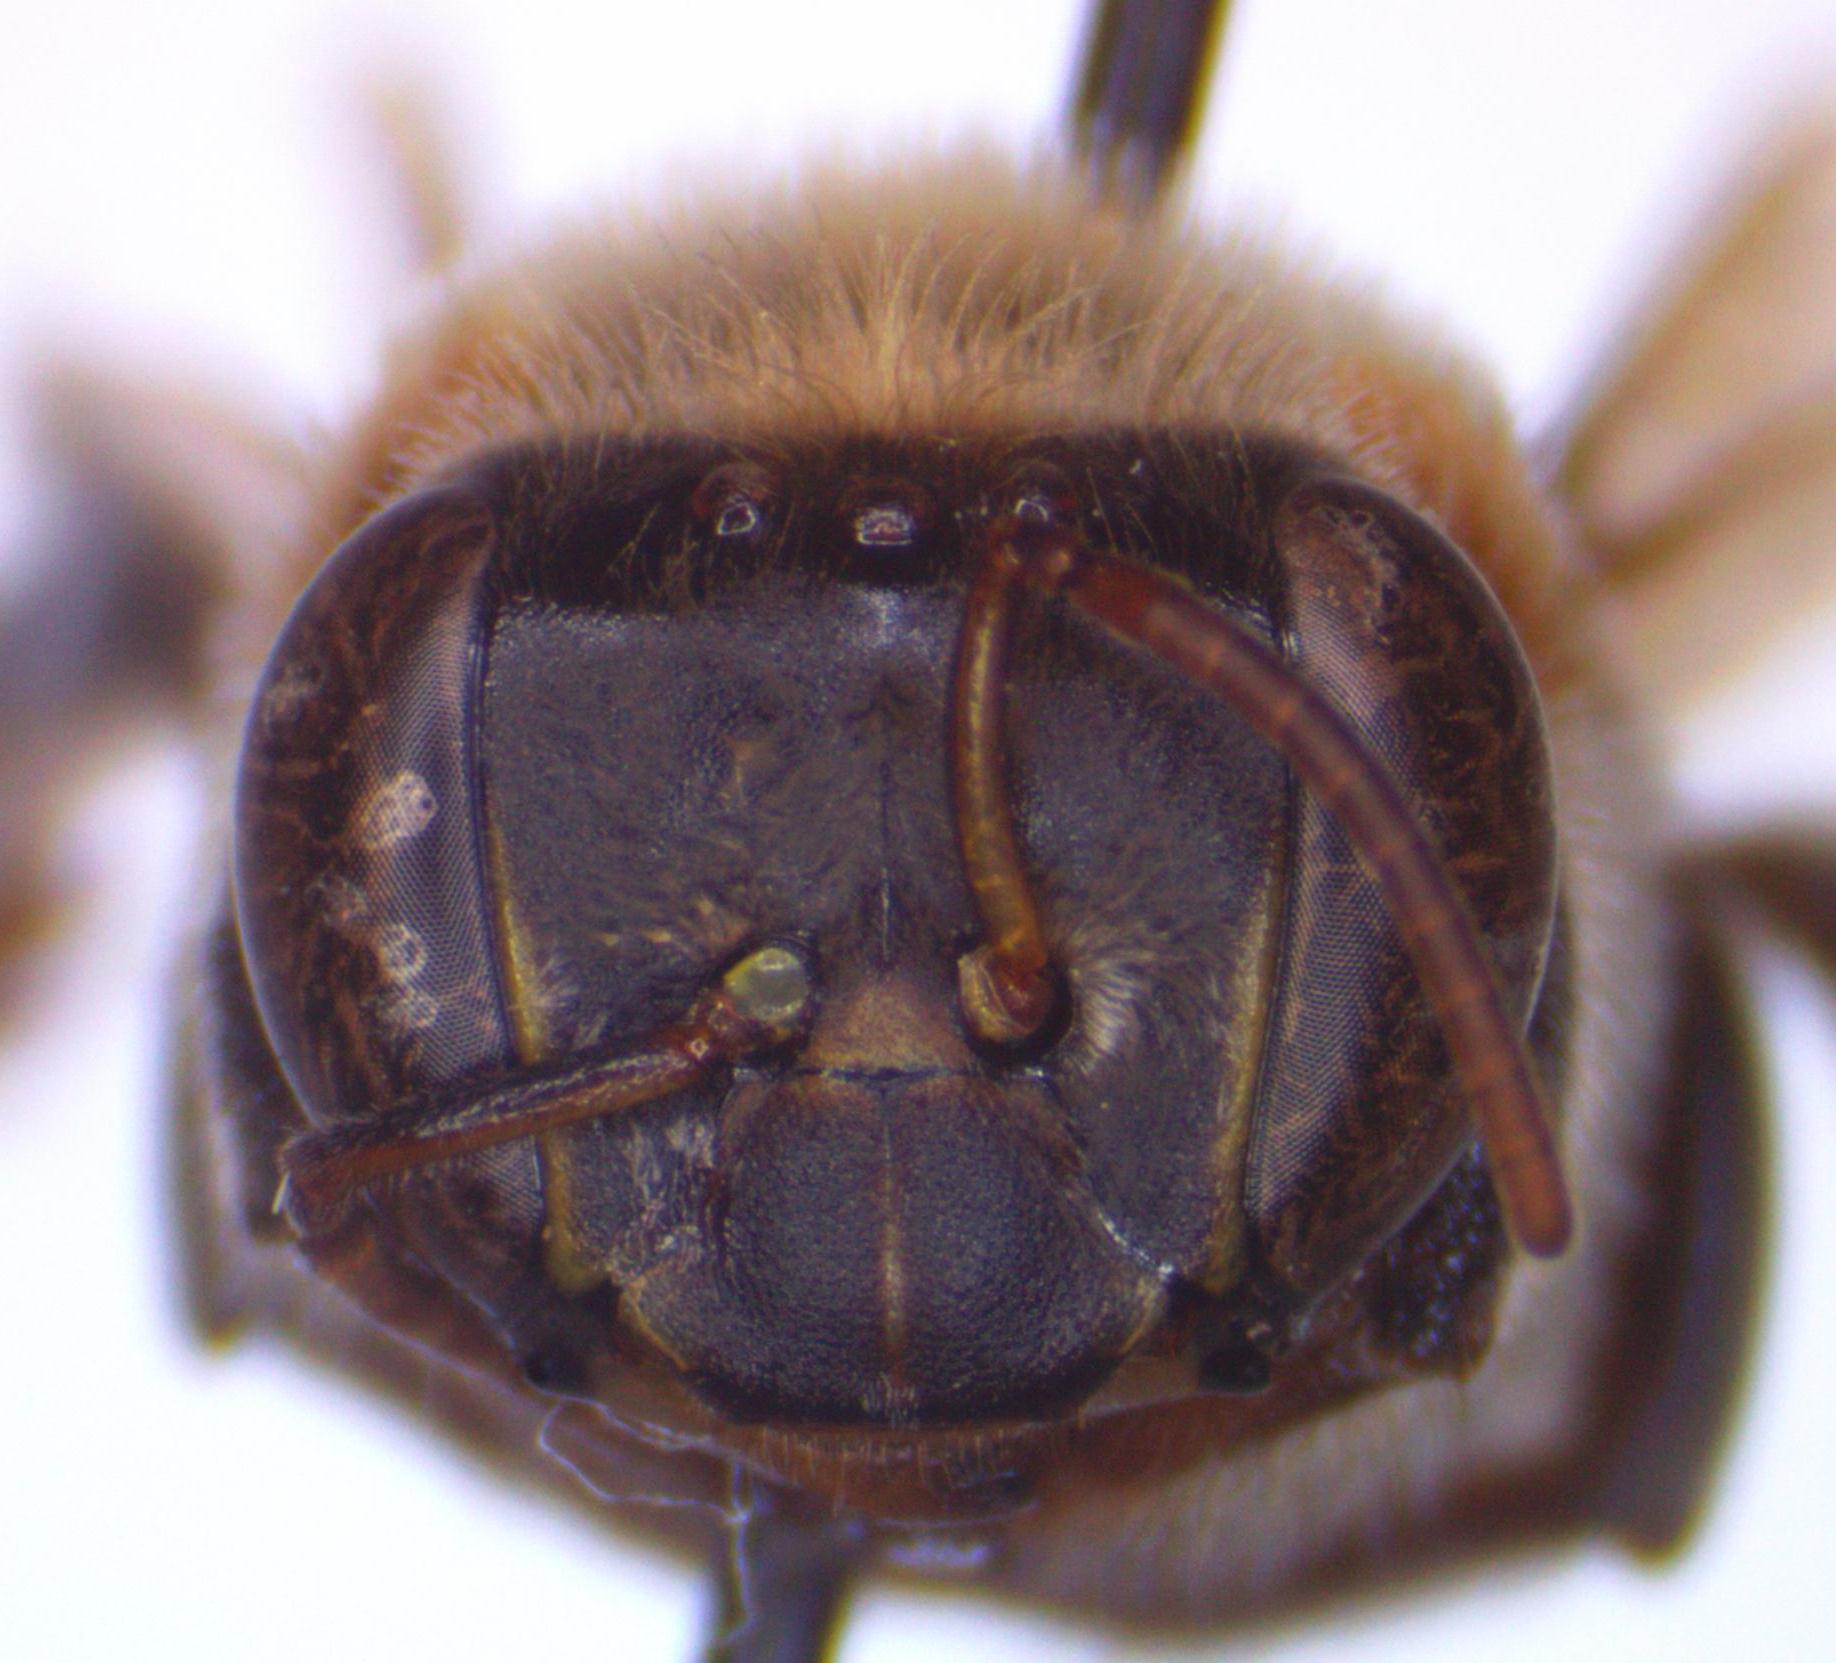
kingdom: Animalia
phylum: Arthropoda
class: Insecta
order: Hymenoptera
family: Apidae
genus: Melipona
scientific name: Melipona beecheii
